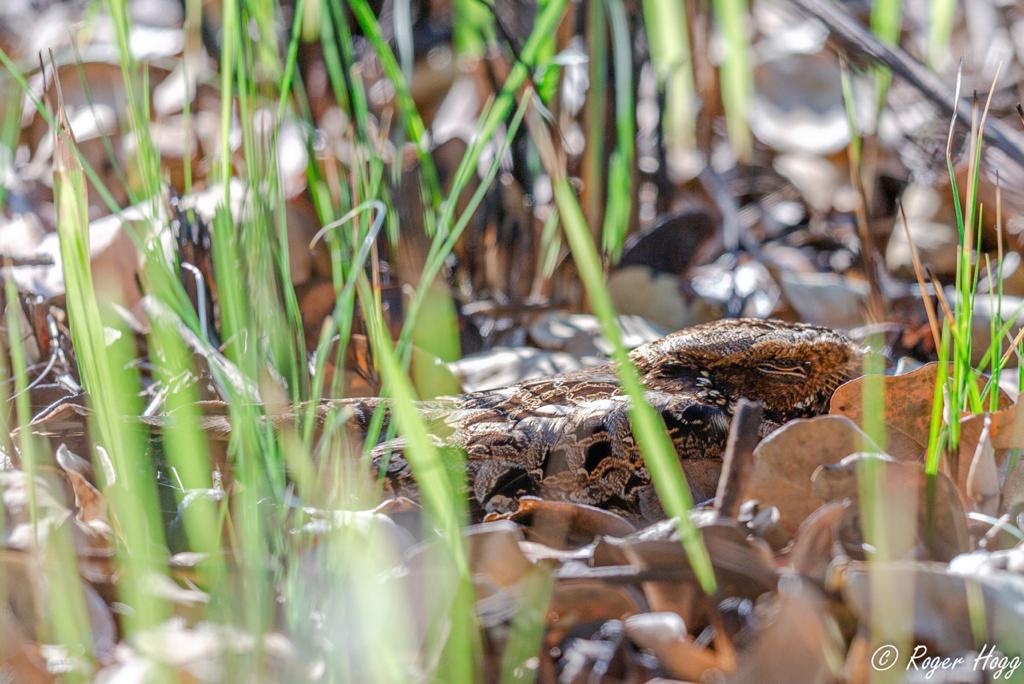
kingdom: Animalia
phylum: Chordata
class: Aves
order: Caprimulgiformes
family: Caprimulgidae
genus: Caprimulgus
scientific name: Caprimulgus pectoralis
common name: Fiery-necked nightjar
